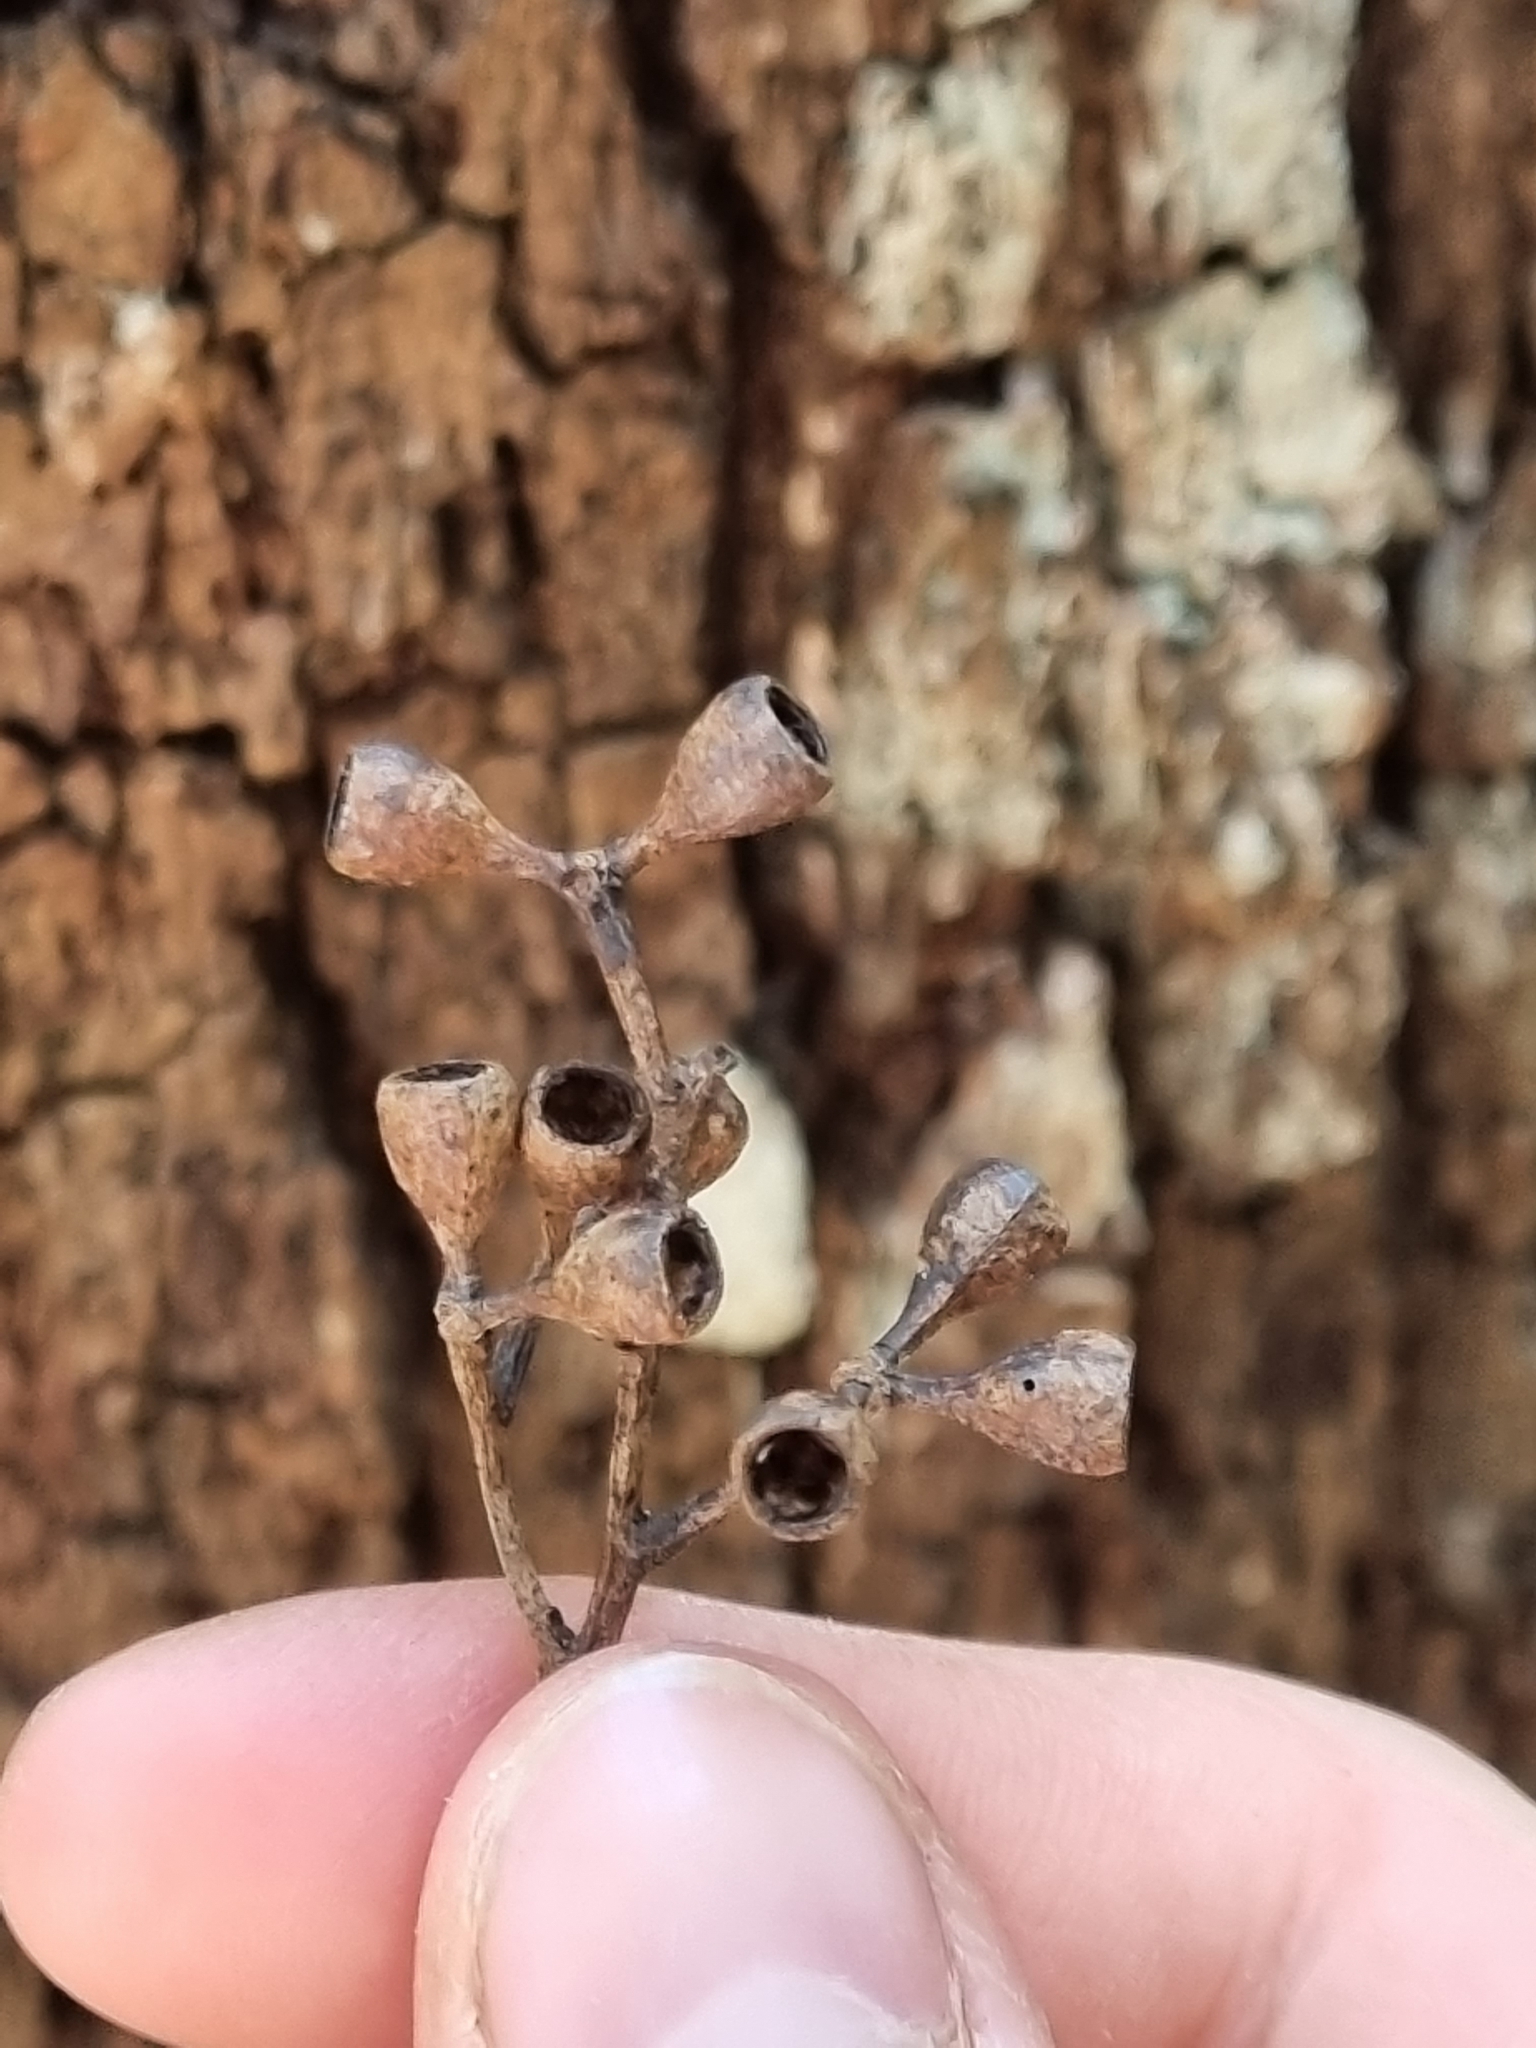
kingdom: Plantae
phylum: Tracheophyta
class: Magnoliopsida
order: Myrtales
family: Myrtaceae
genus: Eucalyptus
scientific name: Eucalyptus rummeryi
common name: Rummery's box
